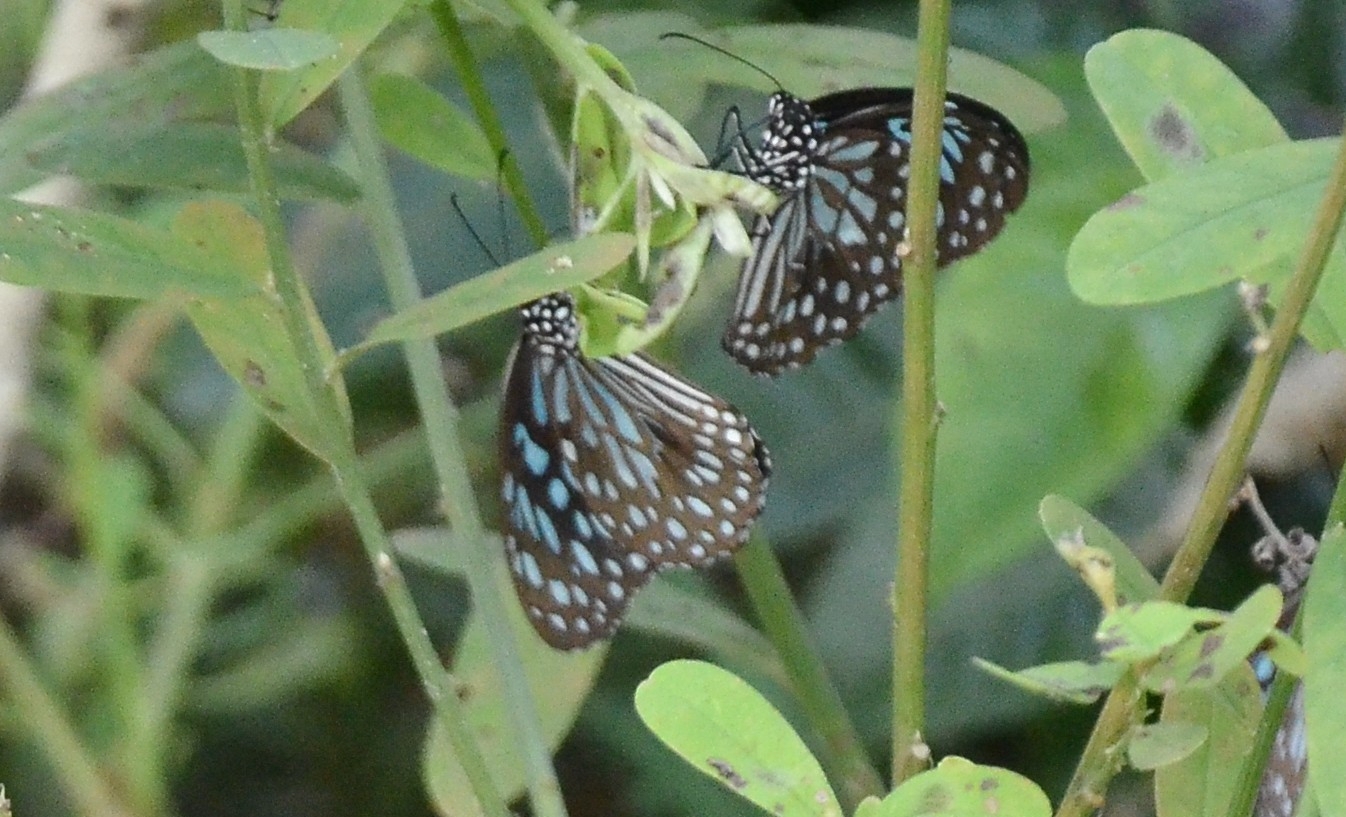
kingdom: Animalia
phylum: Arthropoda
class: Insecta
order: Lepidoptera
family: Nymphalidae
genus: Tirumala
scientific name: Tirumala septentrionis
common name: Dark blue tiger butterfly
